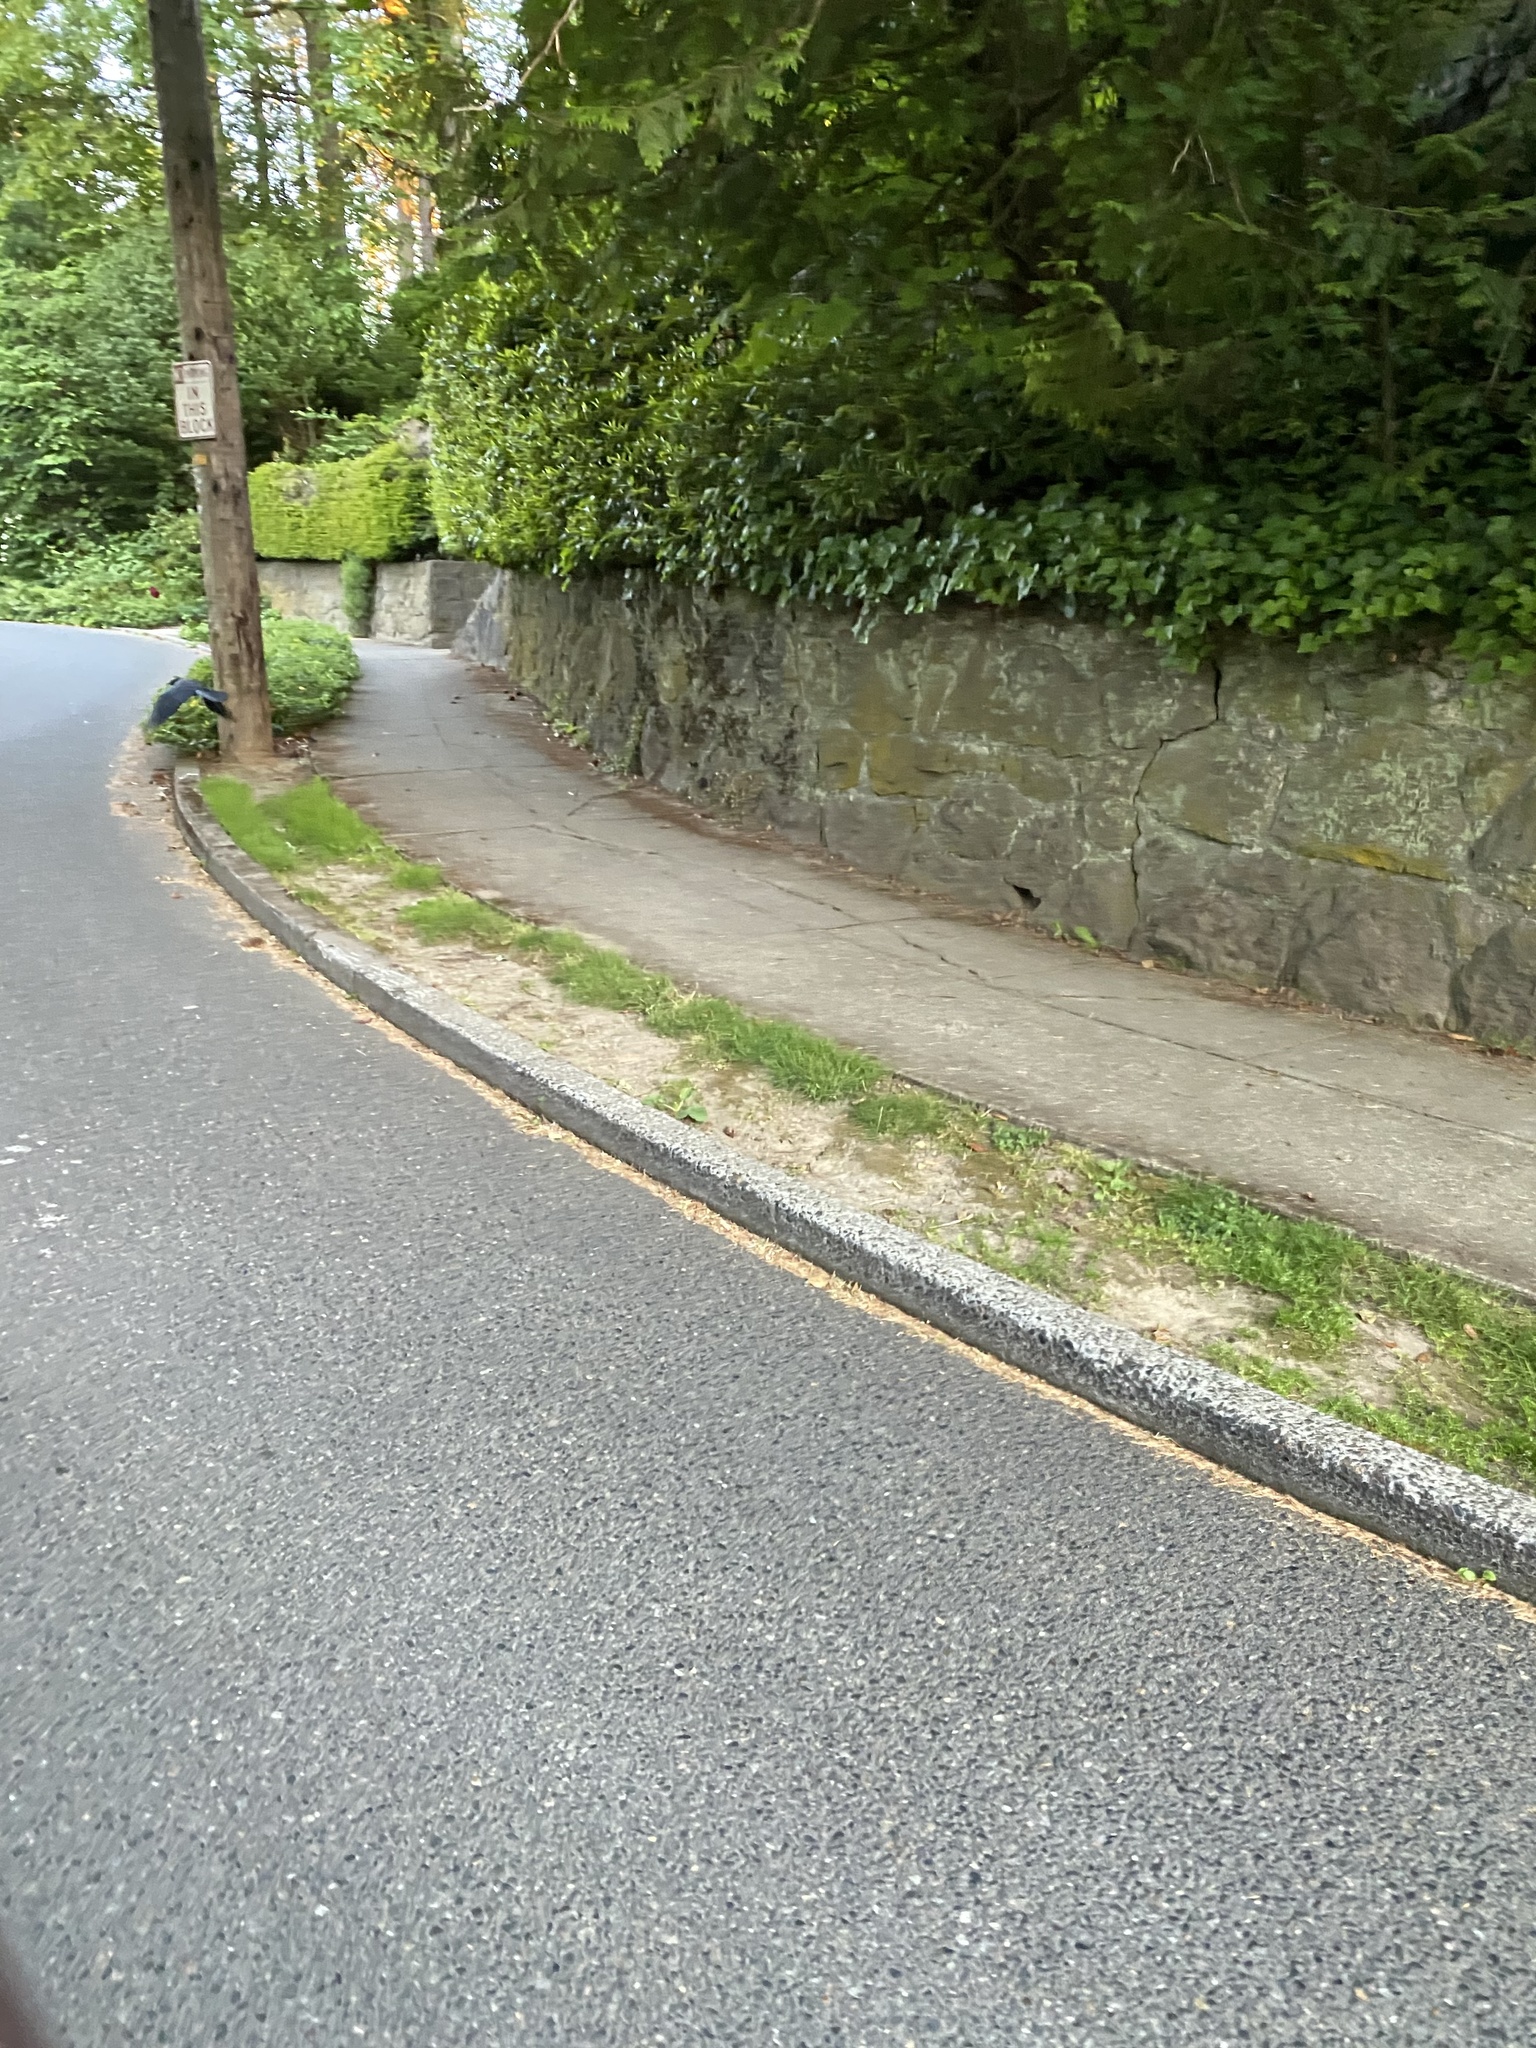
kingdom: Animalia
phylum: Chordata
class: Aves
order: Passeriformes
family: Corvidae
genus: Corvus
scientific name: Corvus brachyrhynchos
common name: American crow
